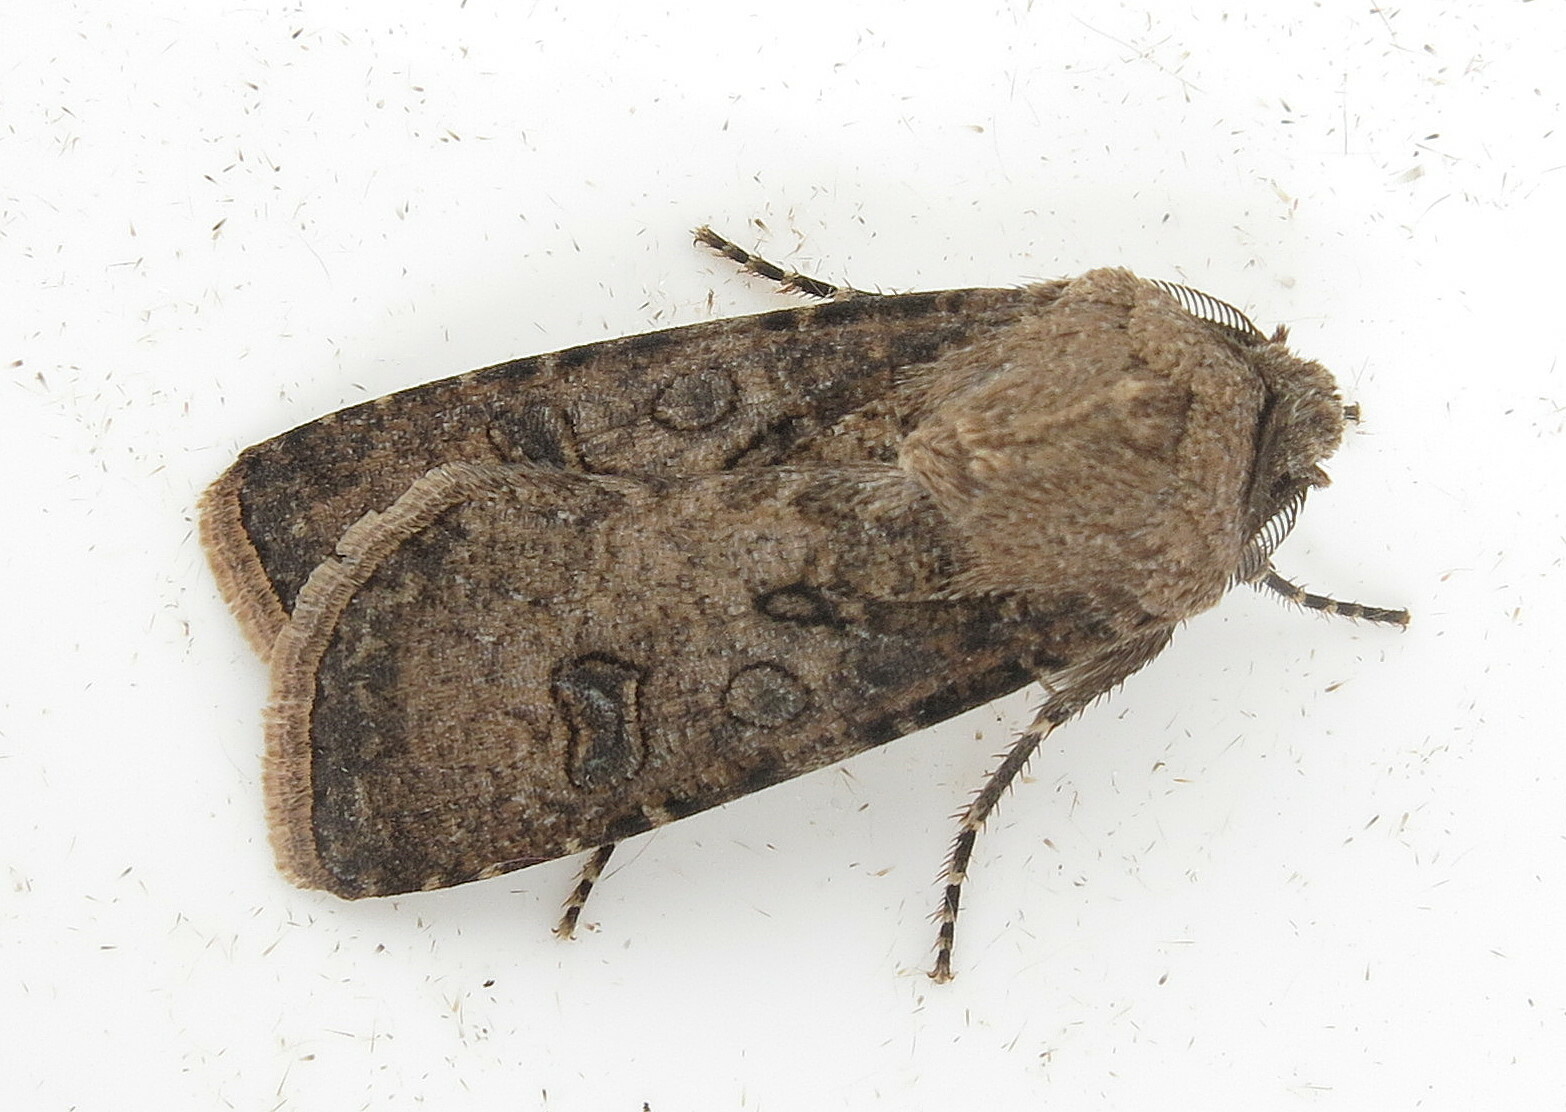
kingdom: Animalia
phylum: Arthropoda
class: Insecta
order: Lepidoptera
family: Noctuidae
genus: Agrotis
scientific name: Agrotis segetum
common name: Turnip moth
